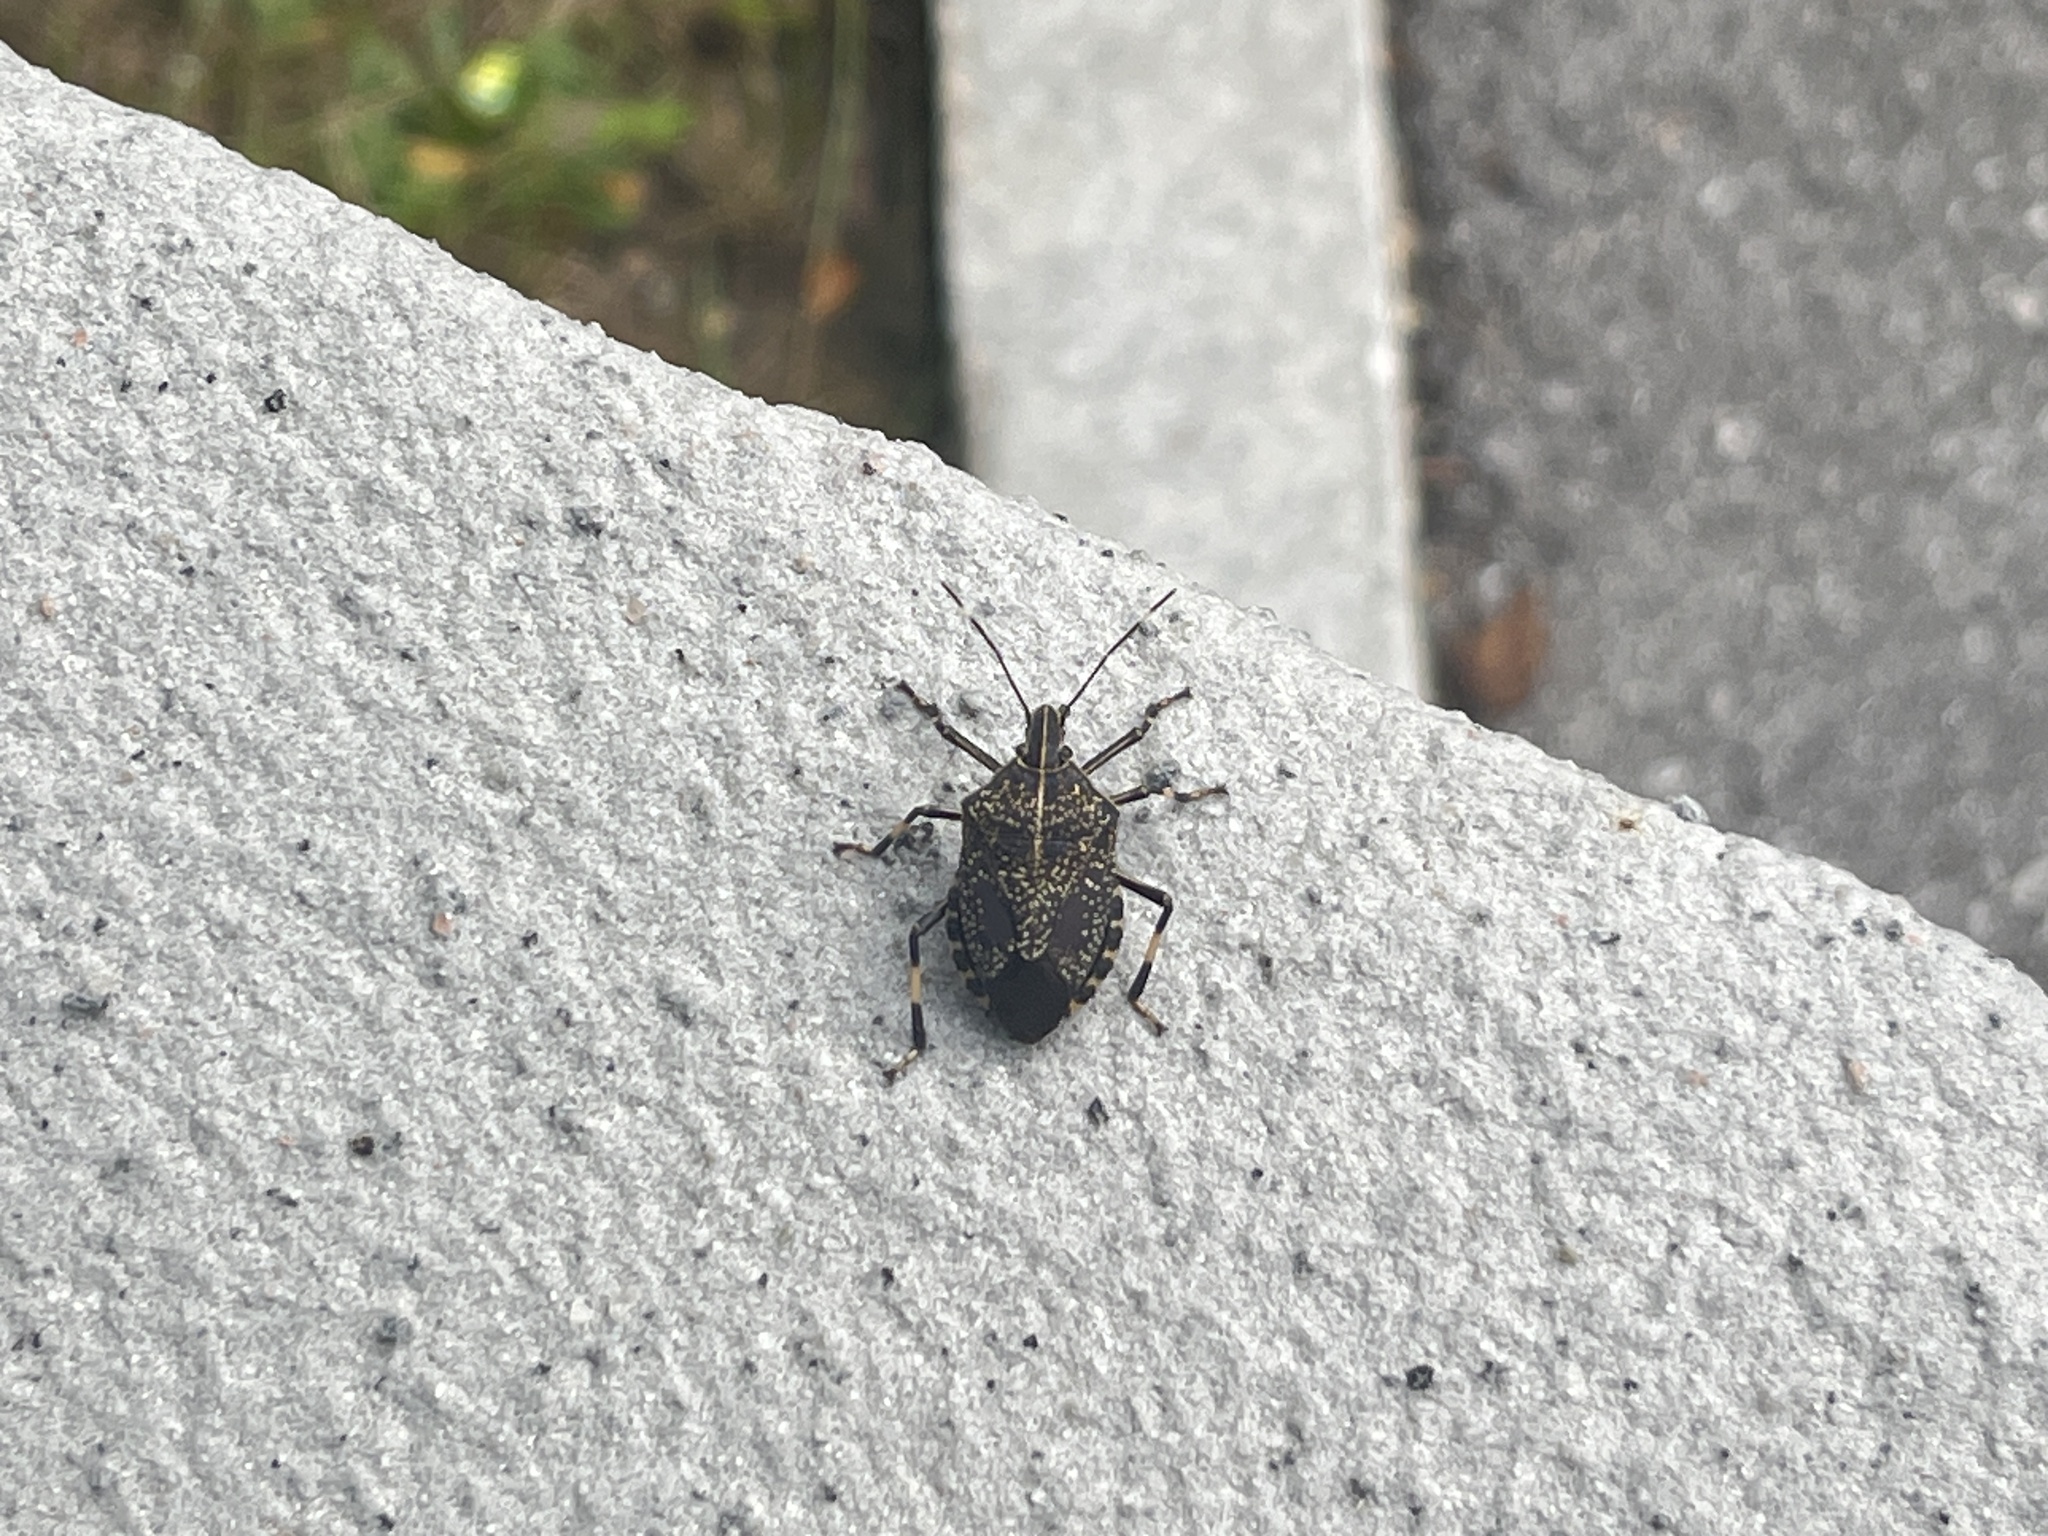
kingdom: Animalia
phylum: Arthropoda
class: Insecta
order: Hemiptera
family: Pentatomidae
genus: Erthesina
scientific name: Erthesina fullo
